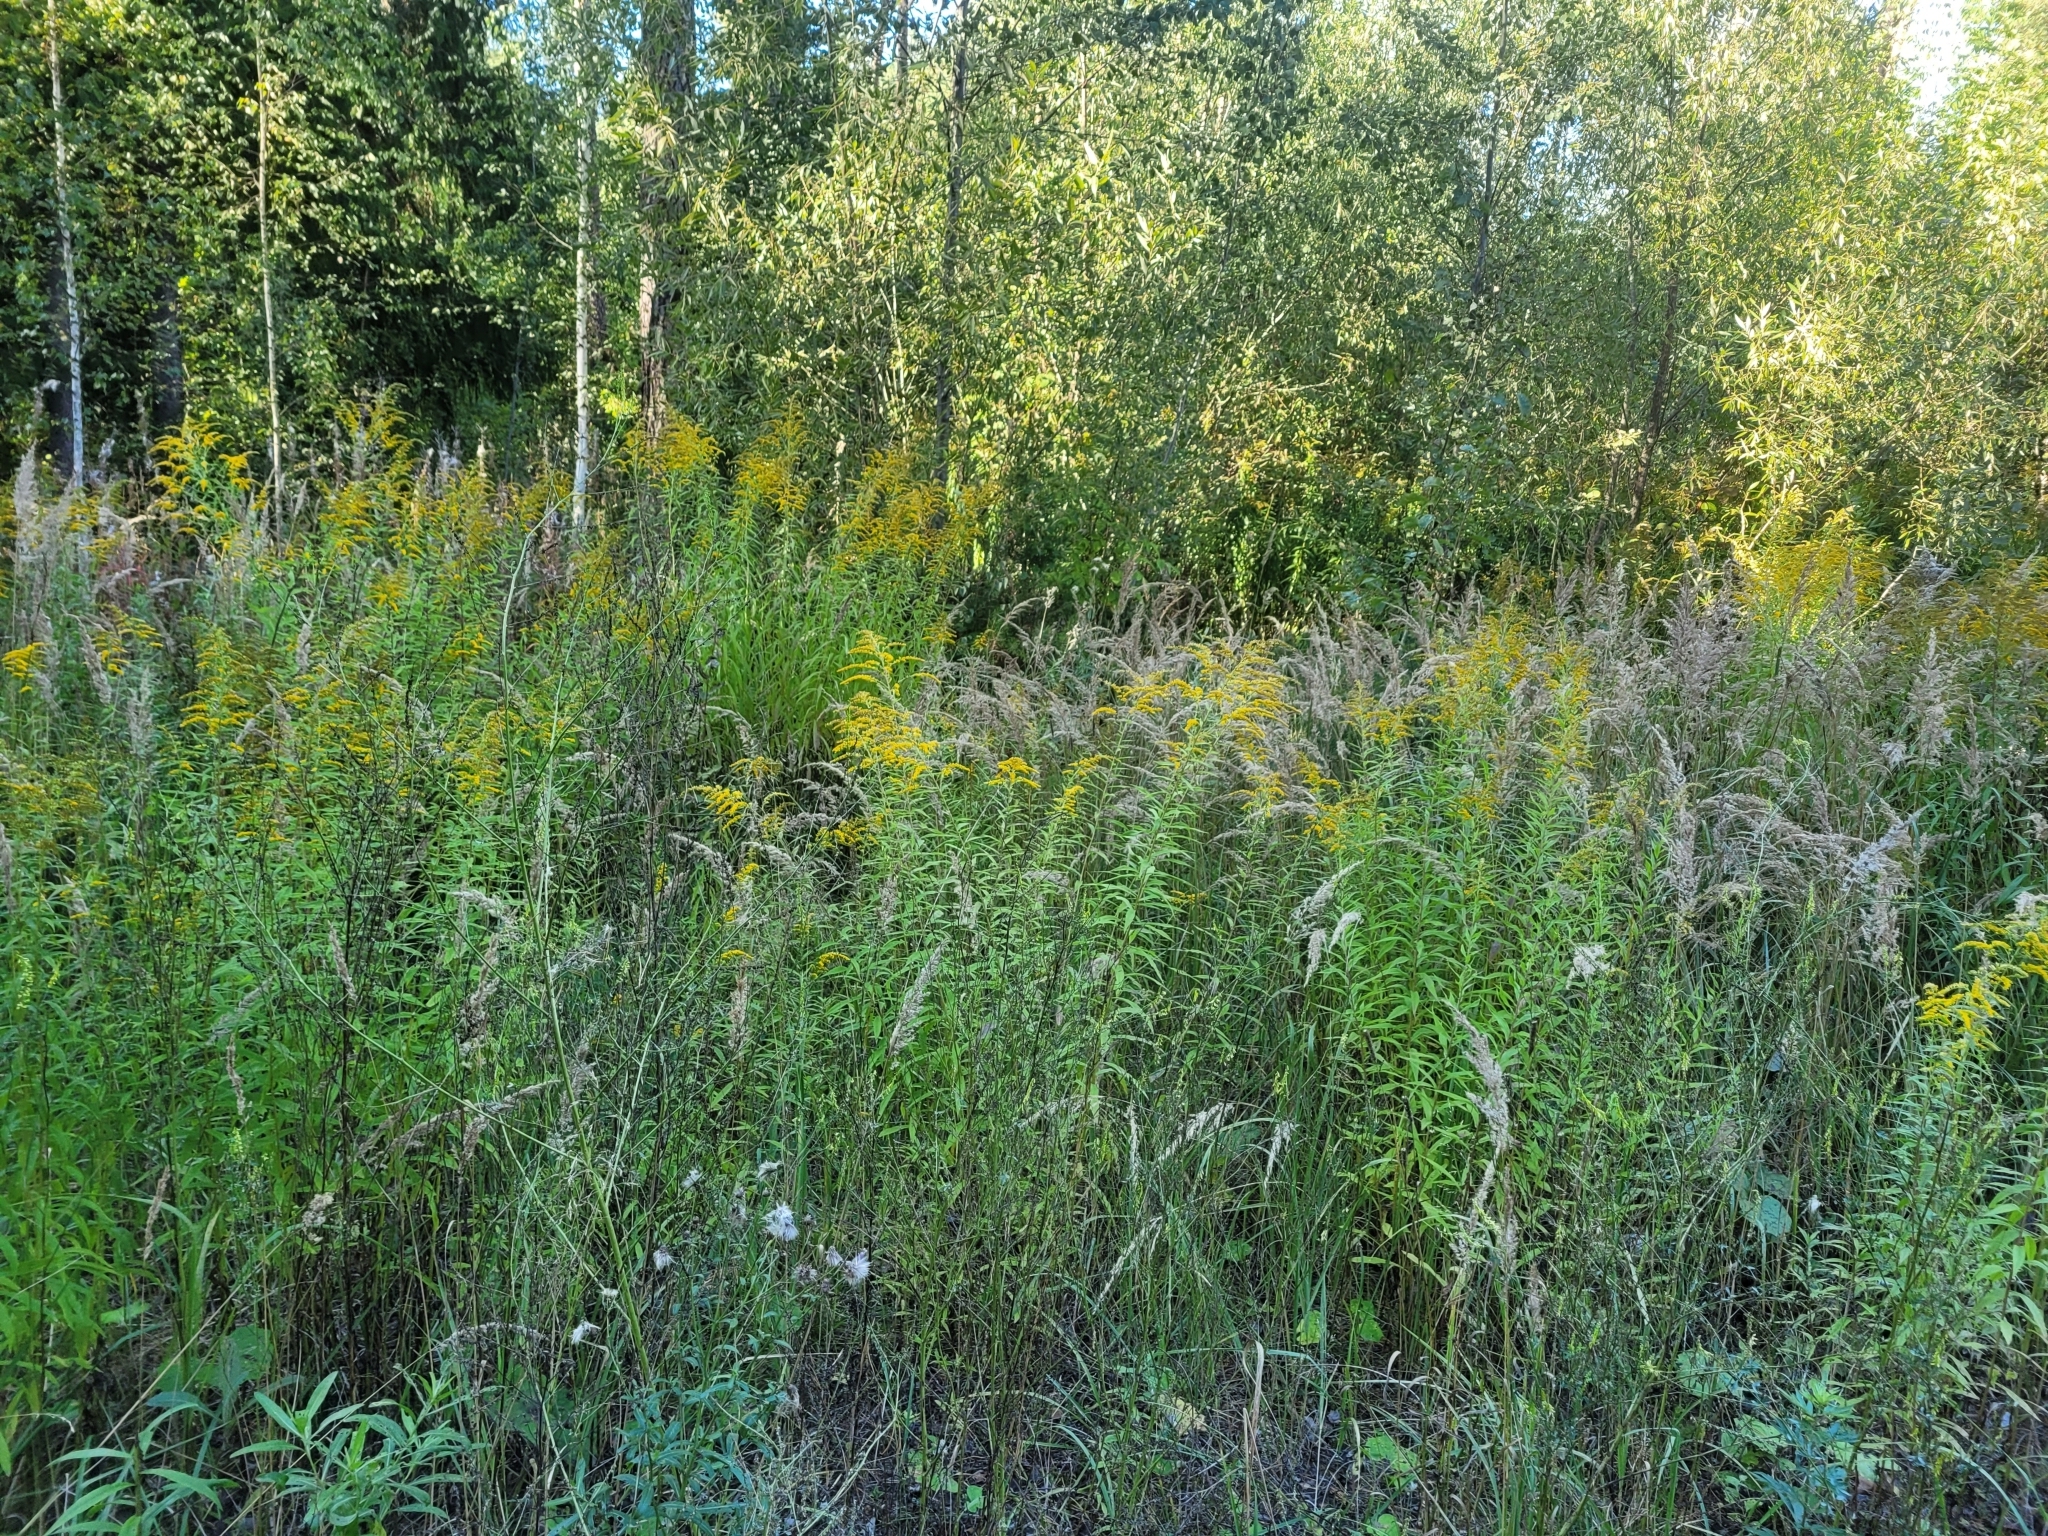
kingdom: Plantae
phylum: Tracheophyta
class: Magnoliopsida
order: Asterales
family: Asteraceae
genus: Solidago
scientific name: Solidago canadensis
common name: Canada goldenrod
